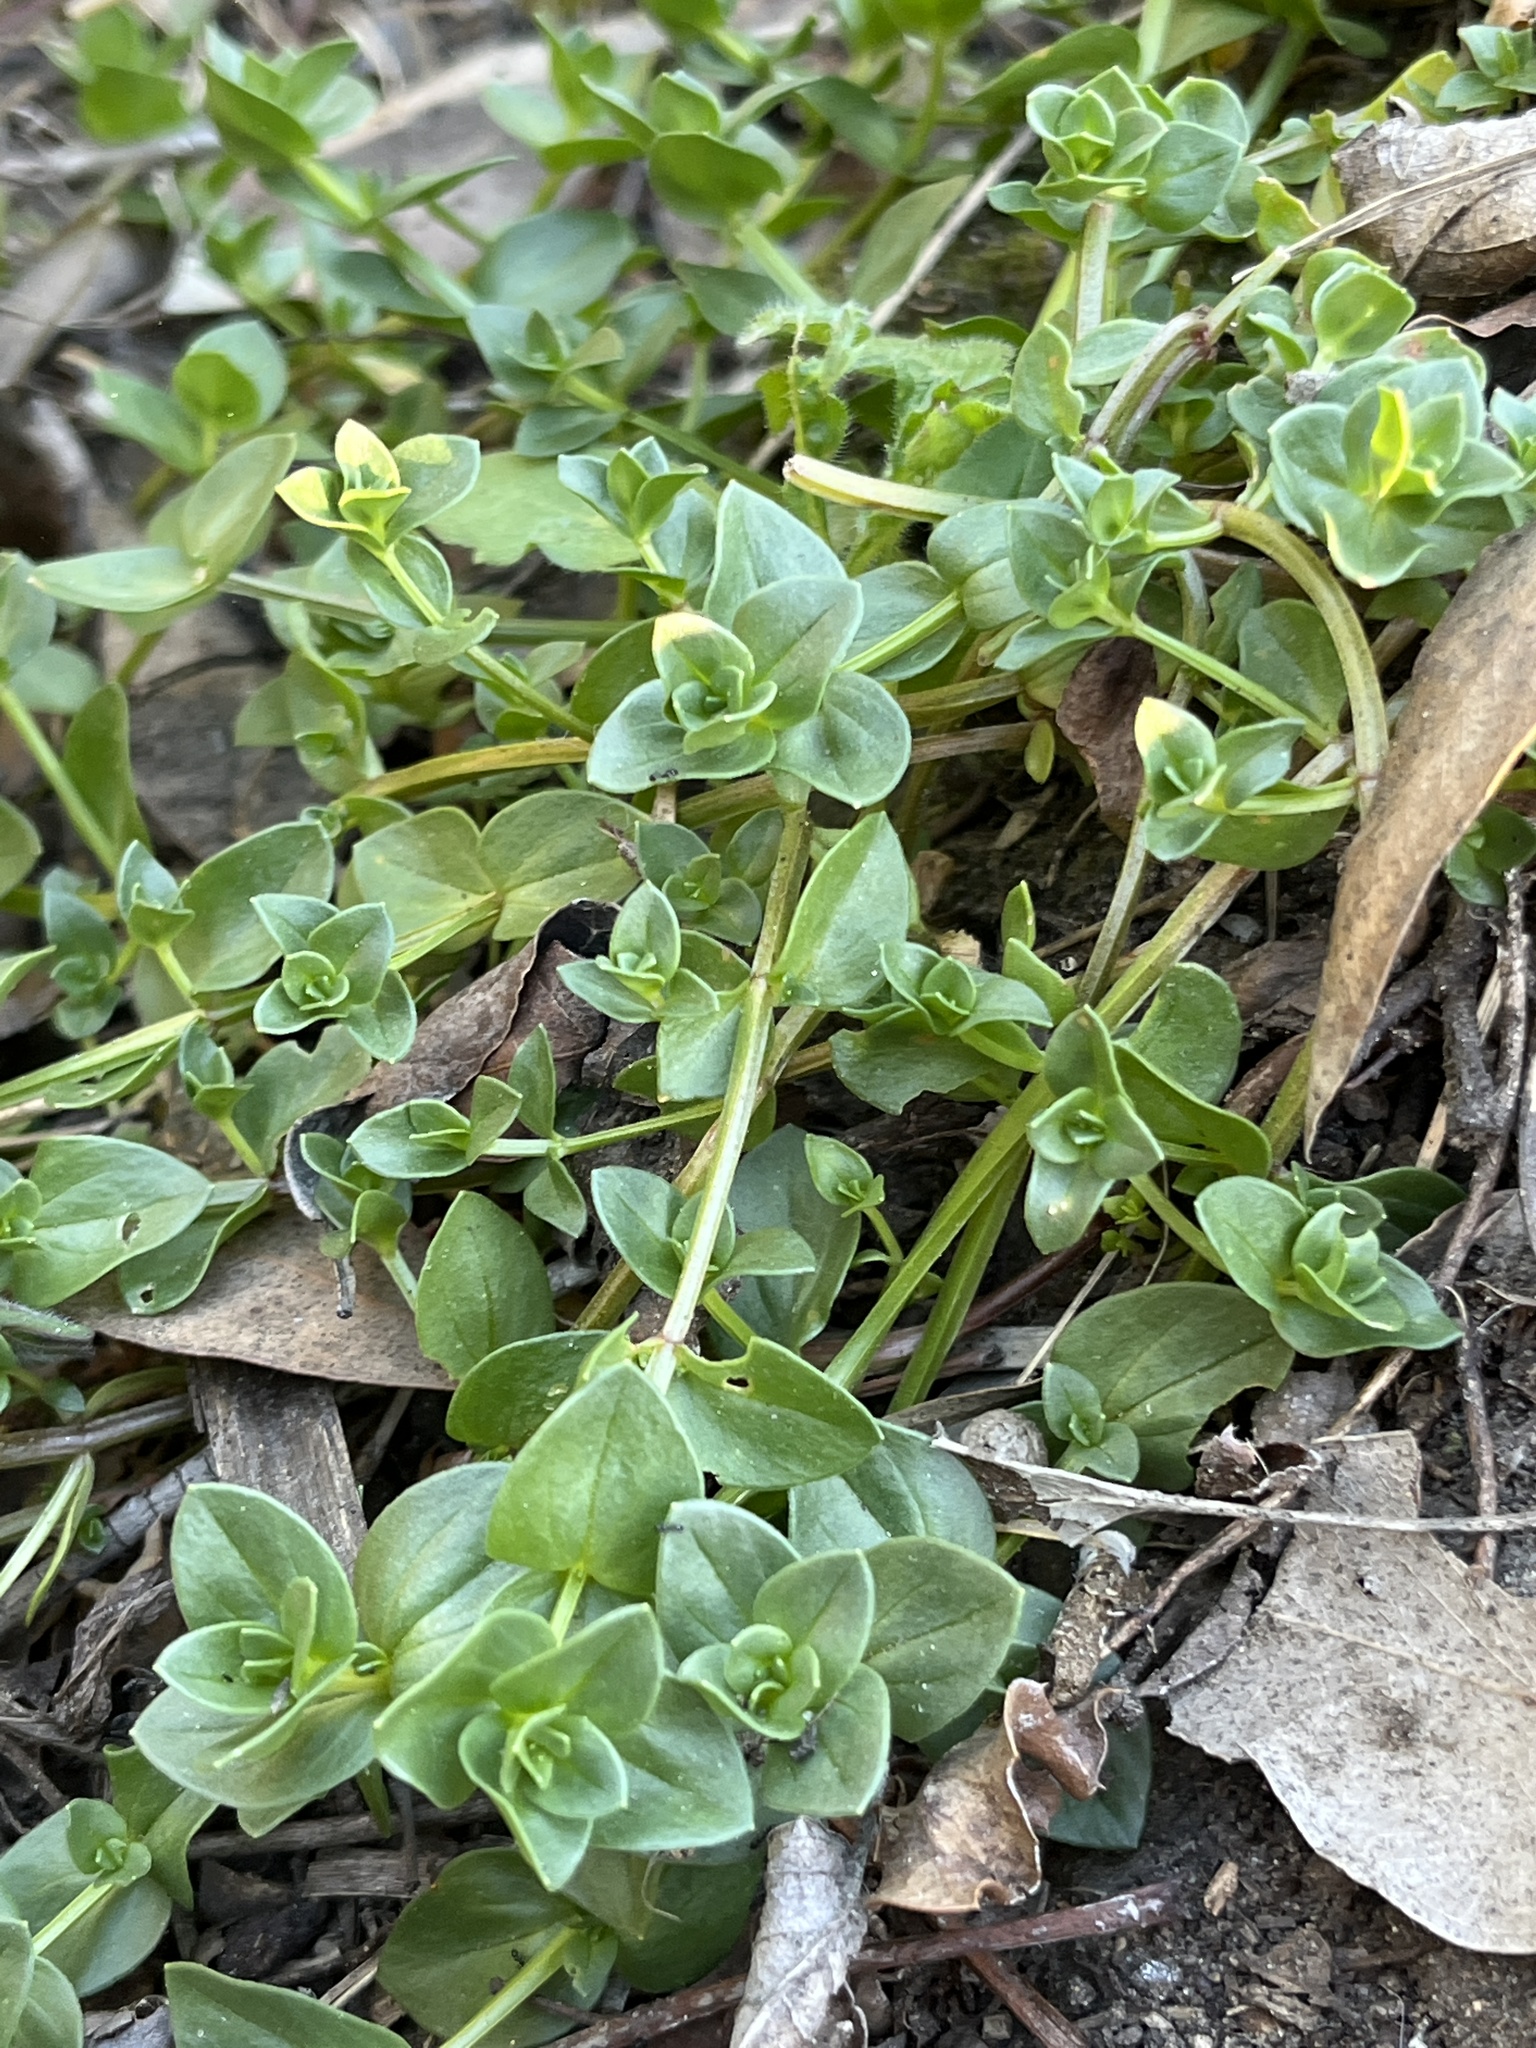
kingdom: Plantae
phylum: Tracheophyta
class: Magnoliopsida
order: Ericales
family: Primulaceae
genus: Lysimachia
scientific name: Lysimachia arvensis
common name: Scarlet pimpernel
